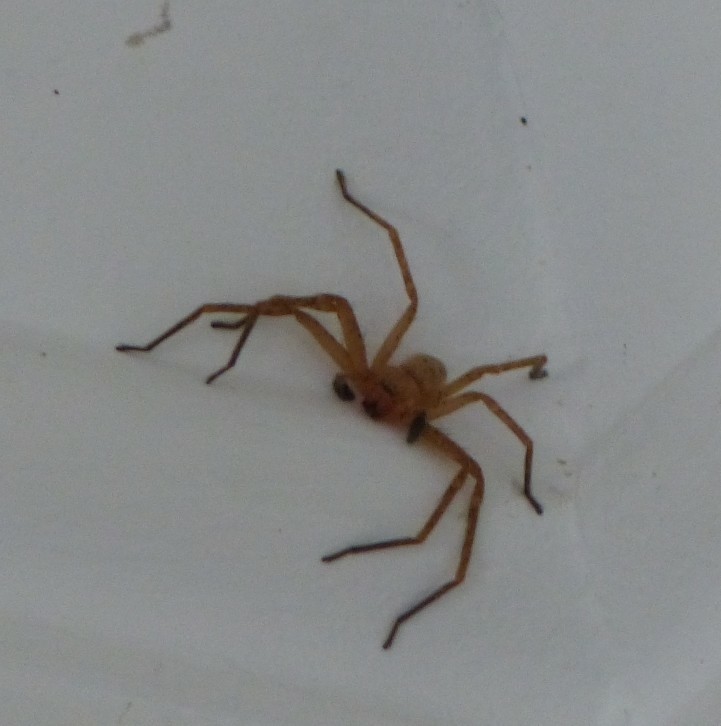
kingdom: Animalia
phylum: Arthropoda
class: Arachnida
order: Araneae
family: Sparassidae
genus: Olios
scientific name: Olios argelasius
